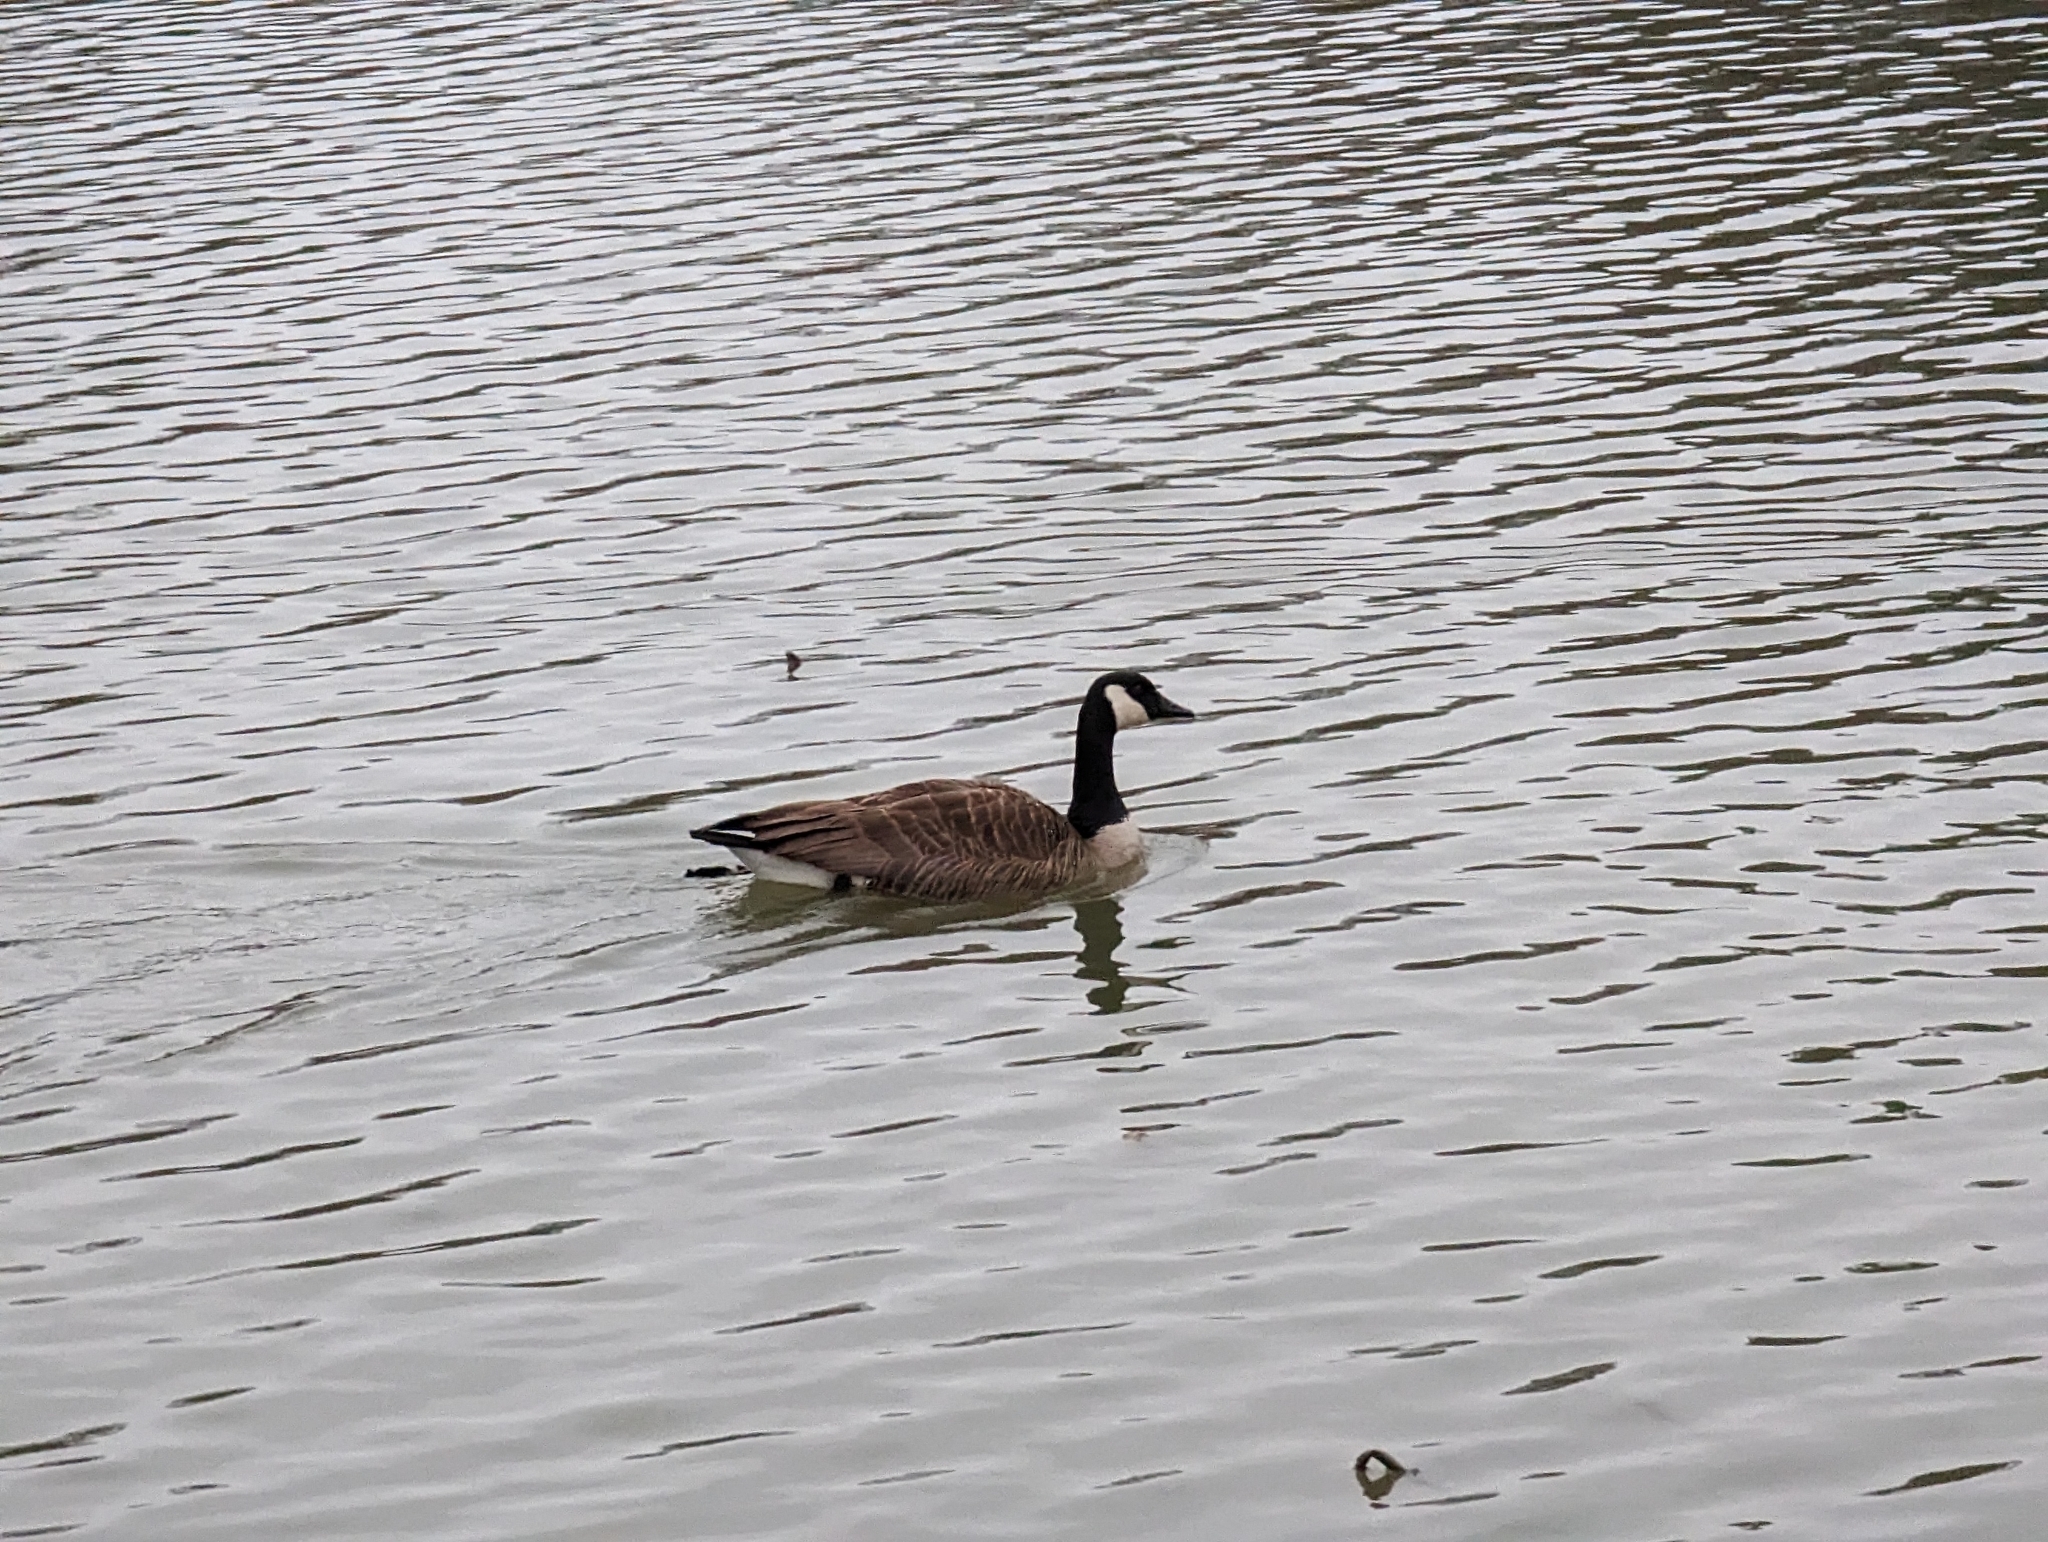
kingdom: Animalia
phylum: Chordata
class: Aves
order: Anseriformes
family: Anatidae
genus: Branta
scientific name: Branta canadensis
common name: Canada goose
